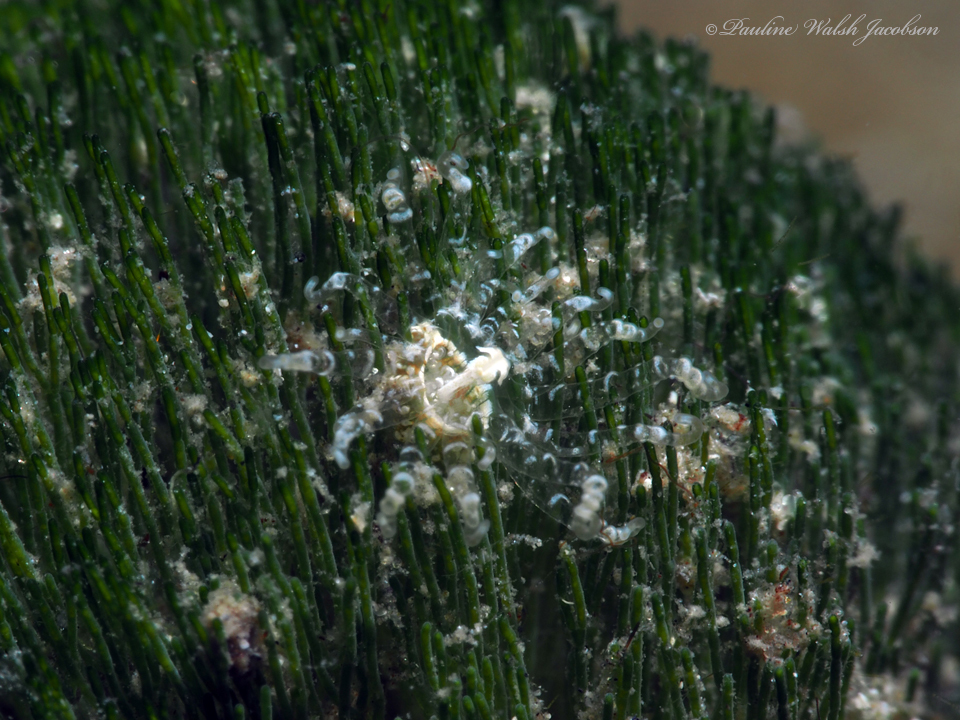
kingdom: Animalia
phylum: Cnidaria
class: Anthozoa
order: Actiniaria
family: Boloceroididae
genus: Bunodeopsis
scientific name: Bunodeopsis globulifera
